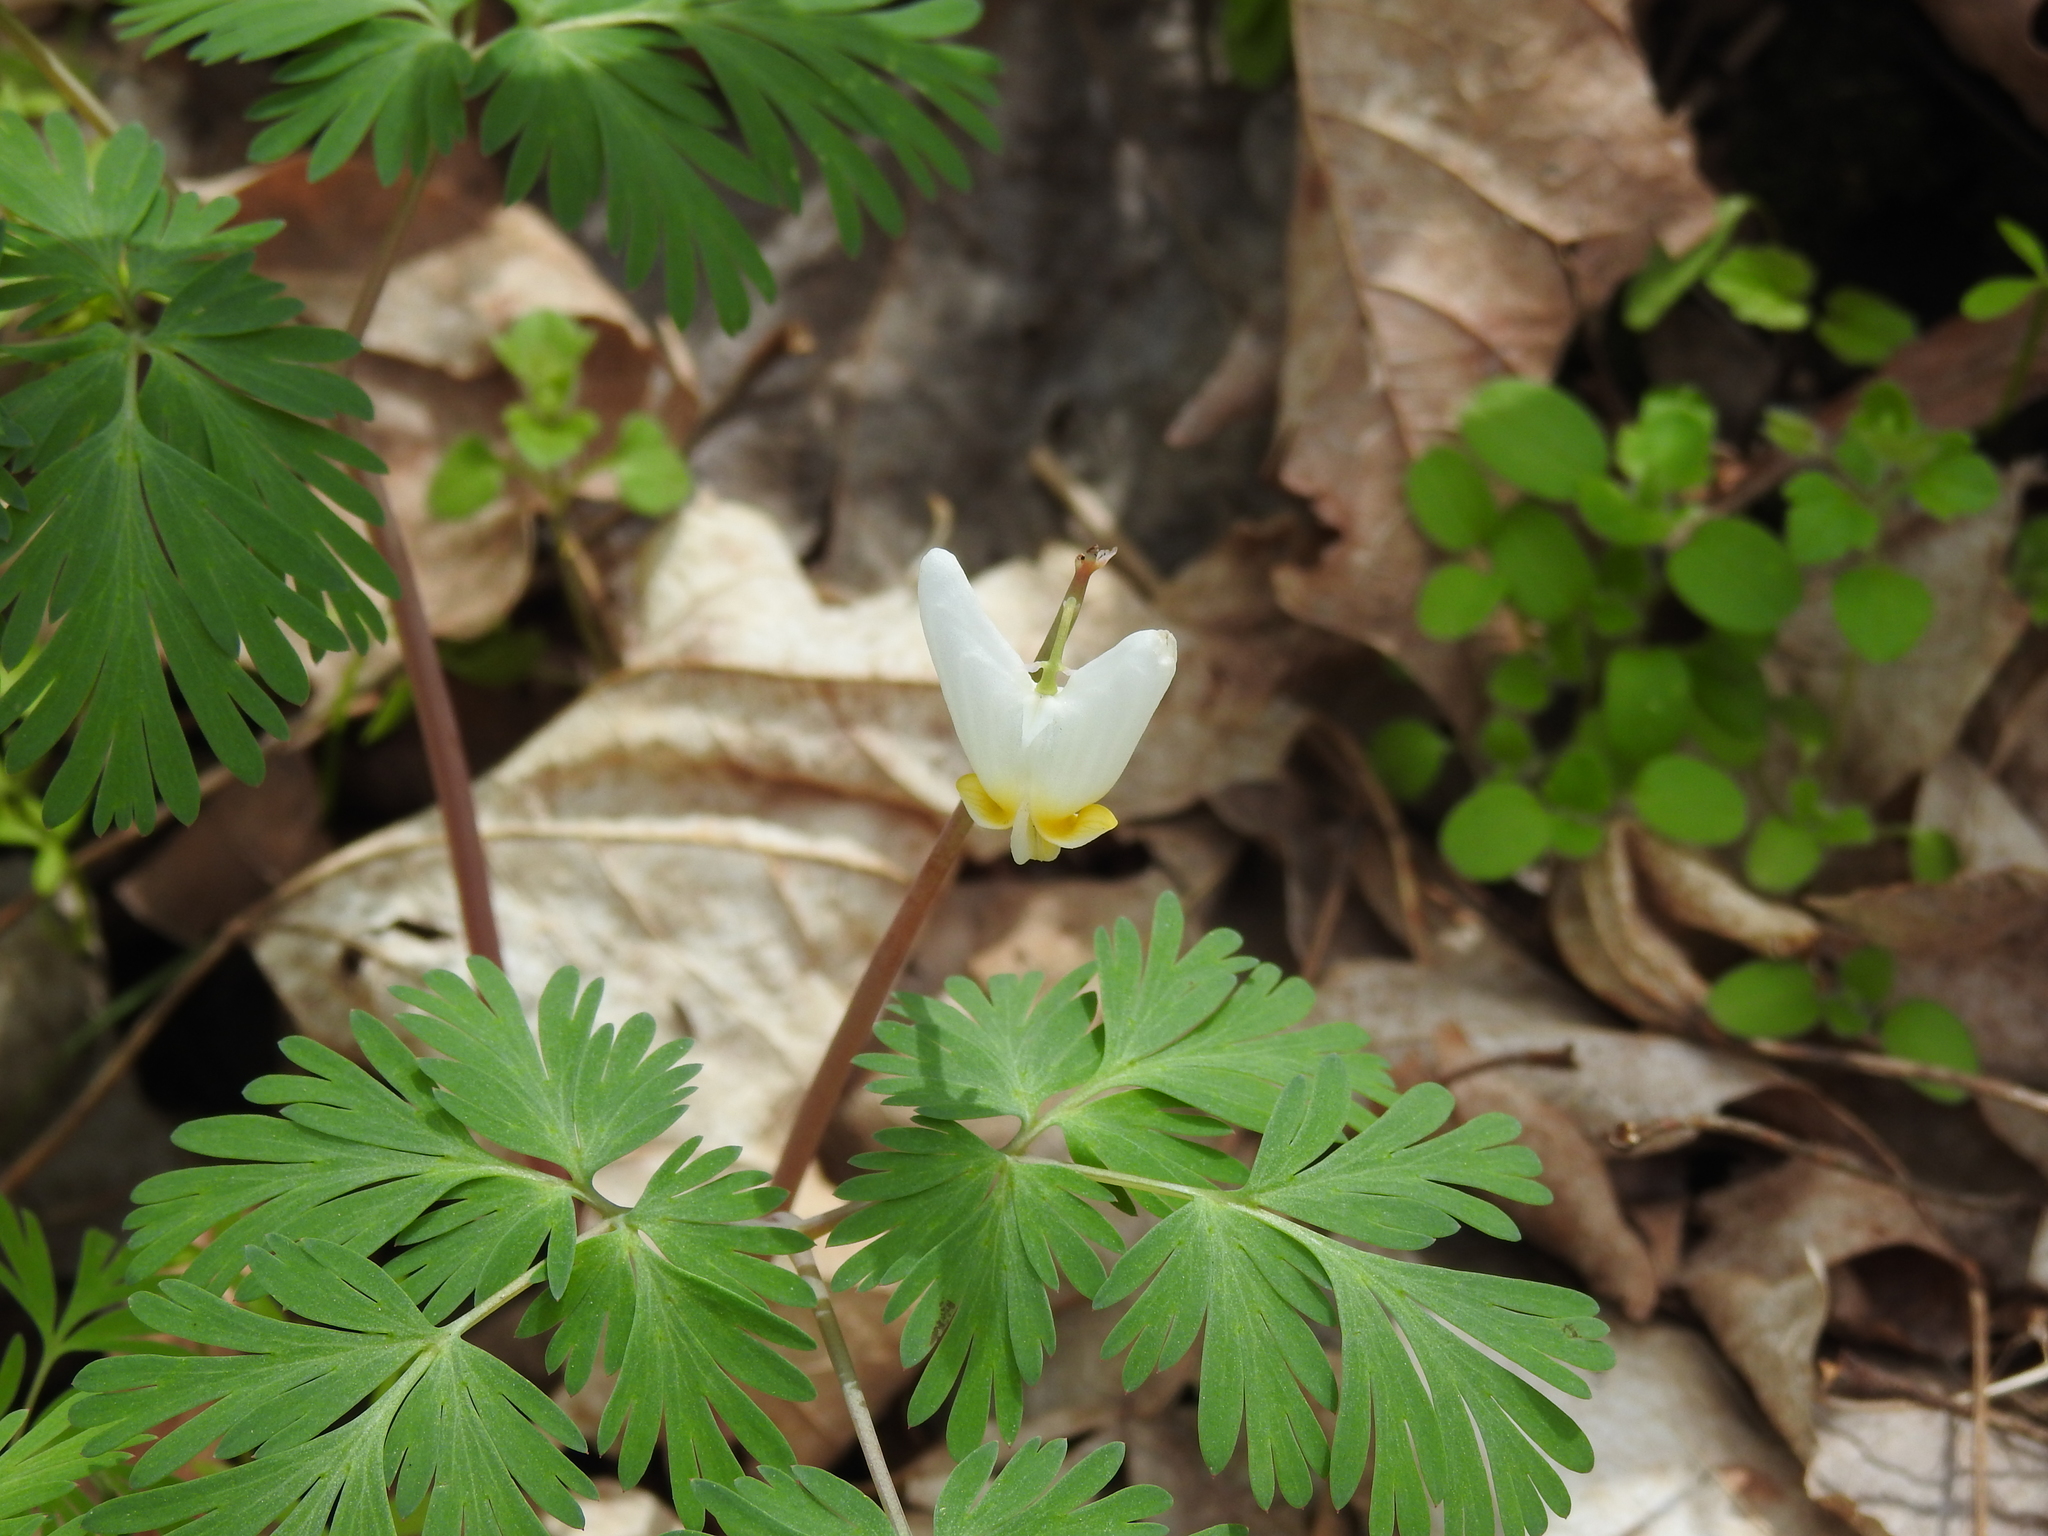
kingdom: Plantae
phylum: Tracheophyta
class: Magnoliopsida
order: Ranunculales
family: Papaveraceae
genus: Dicentra
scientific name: Dicentra cucullaria
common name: Dutchman's breeches
